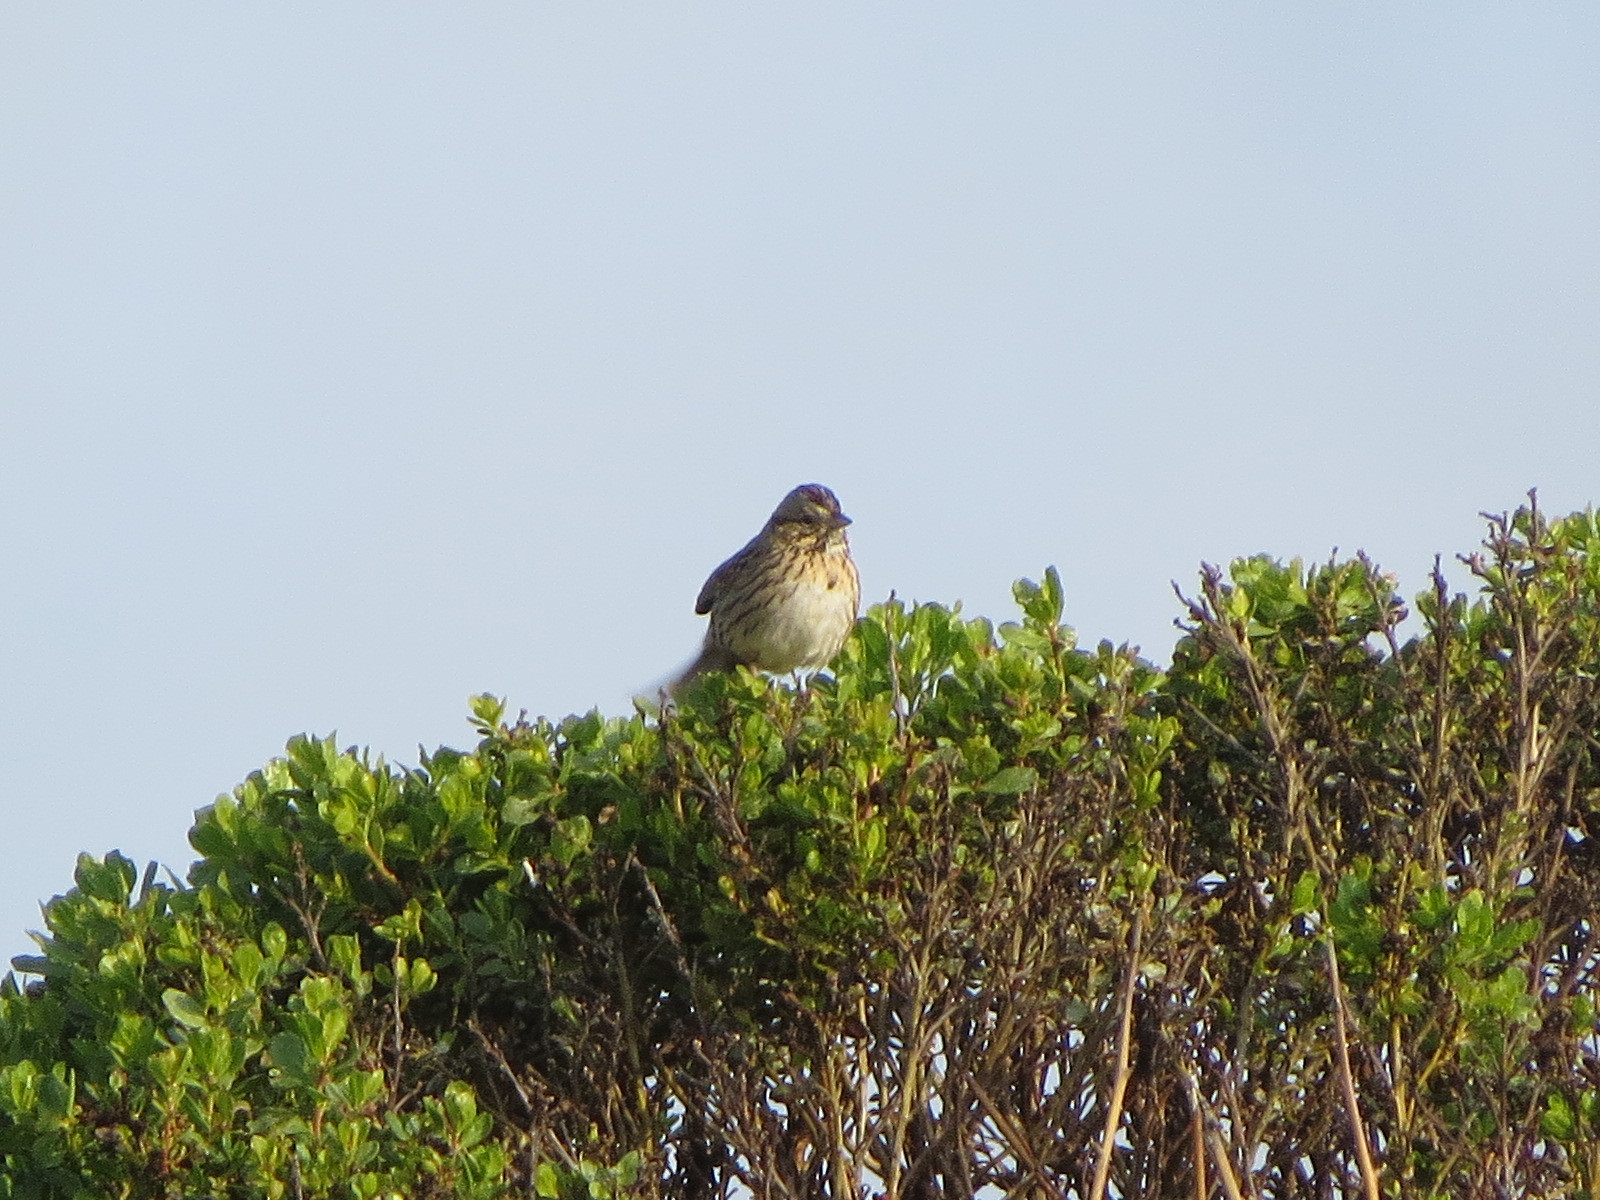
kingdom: Animalia
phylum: Chordata
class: Aves
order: Passeriformes
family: Passerellidae
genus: Melospiza
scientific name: Melospiza lincolnii
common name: Lincoln's sparrow
